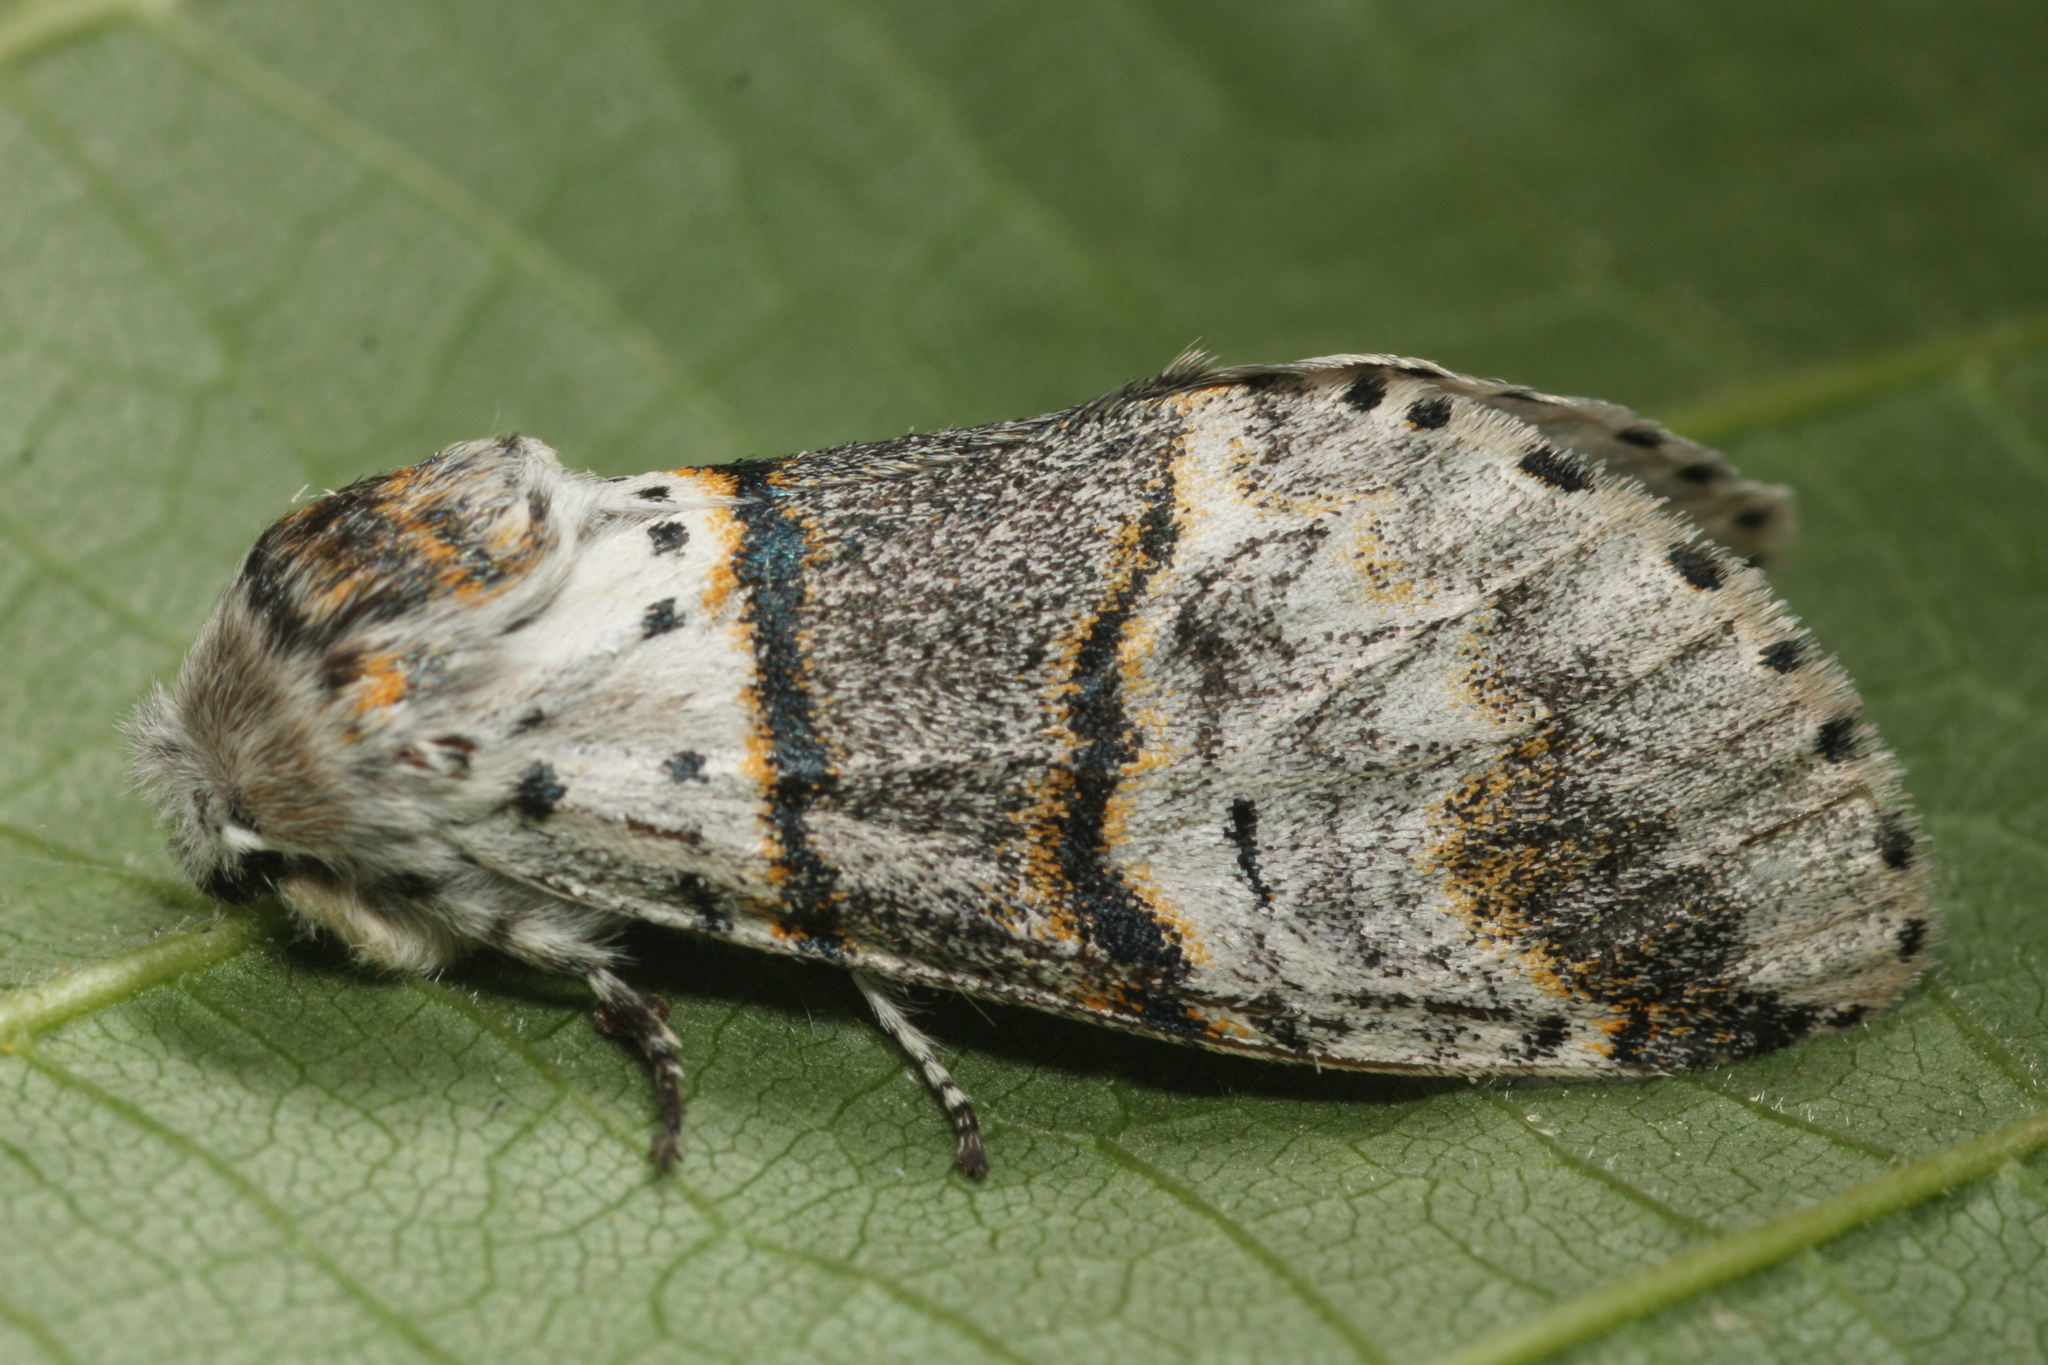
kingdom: Animalia
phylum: Arthropoda
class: Insecta
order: Lepidoptera
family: Notodontidae
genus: Furcula
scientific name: Furcula bifida
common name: Poplar kitten
